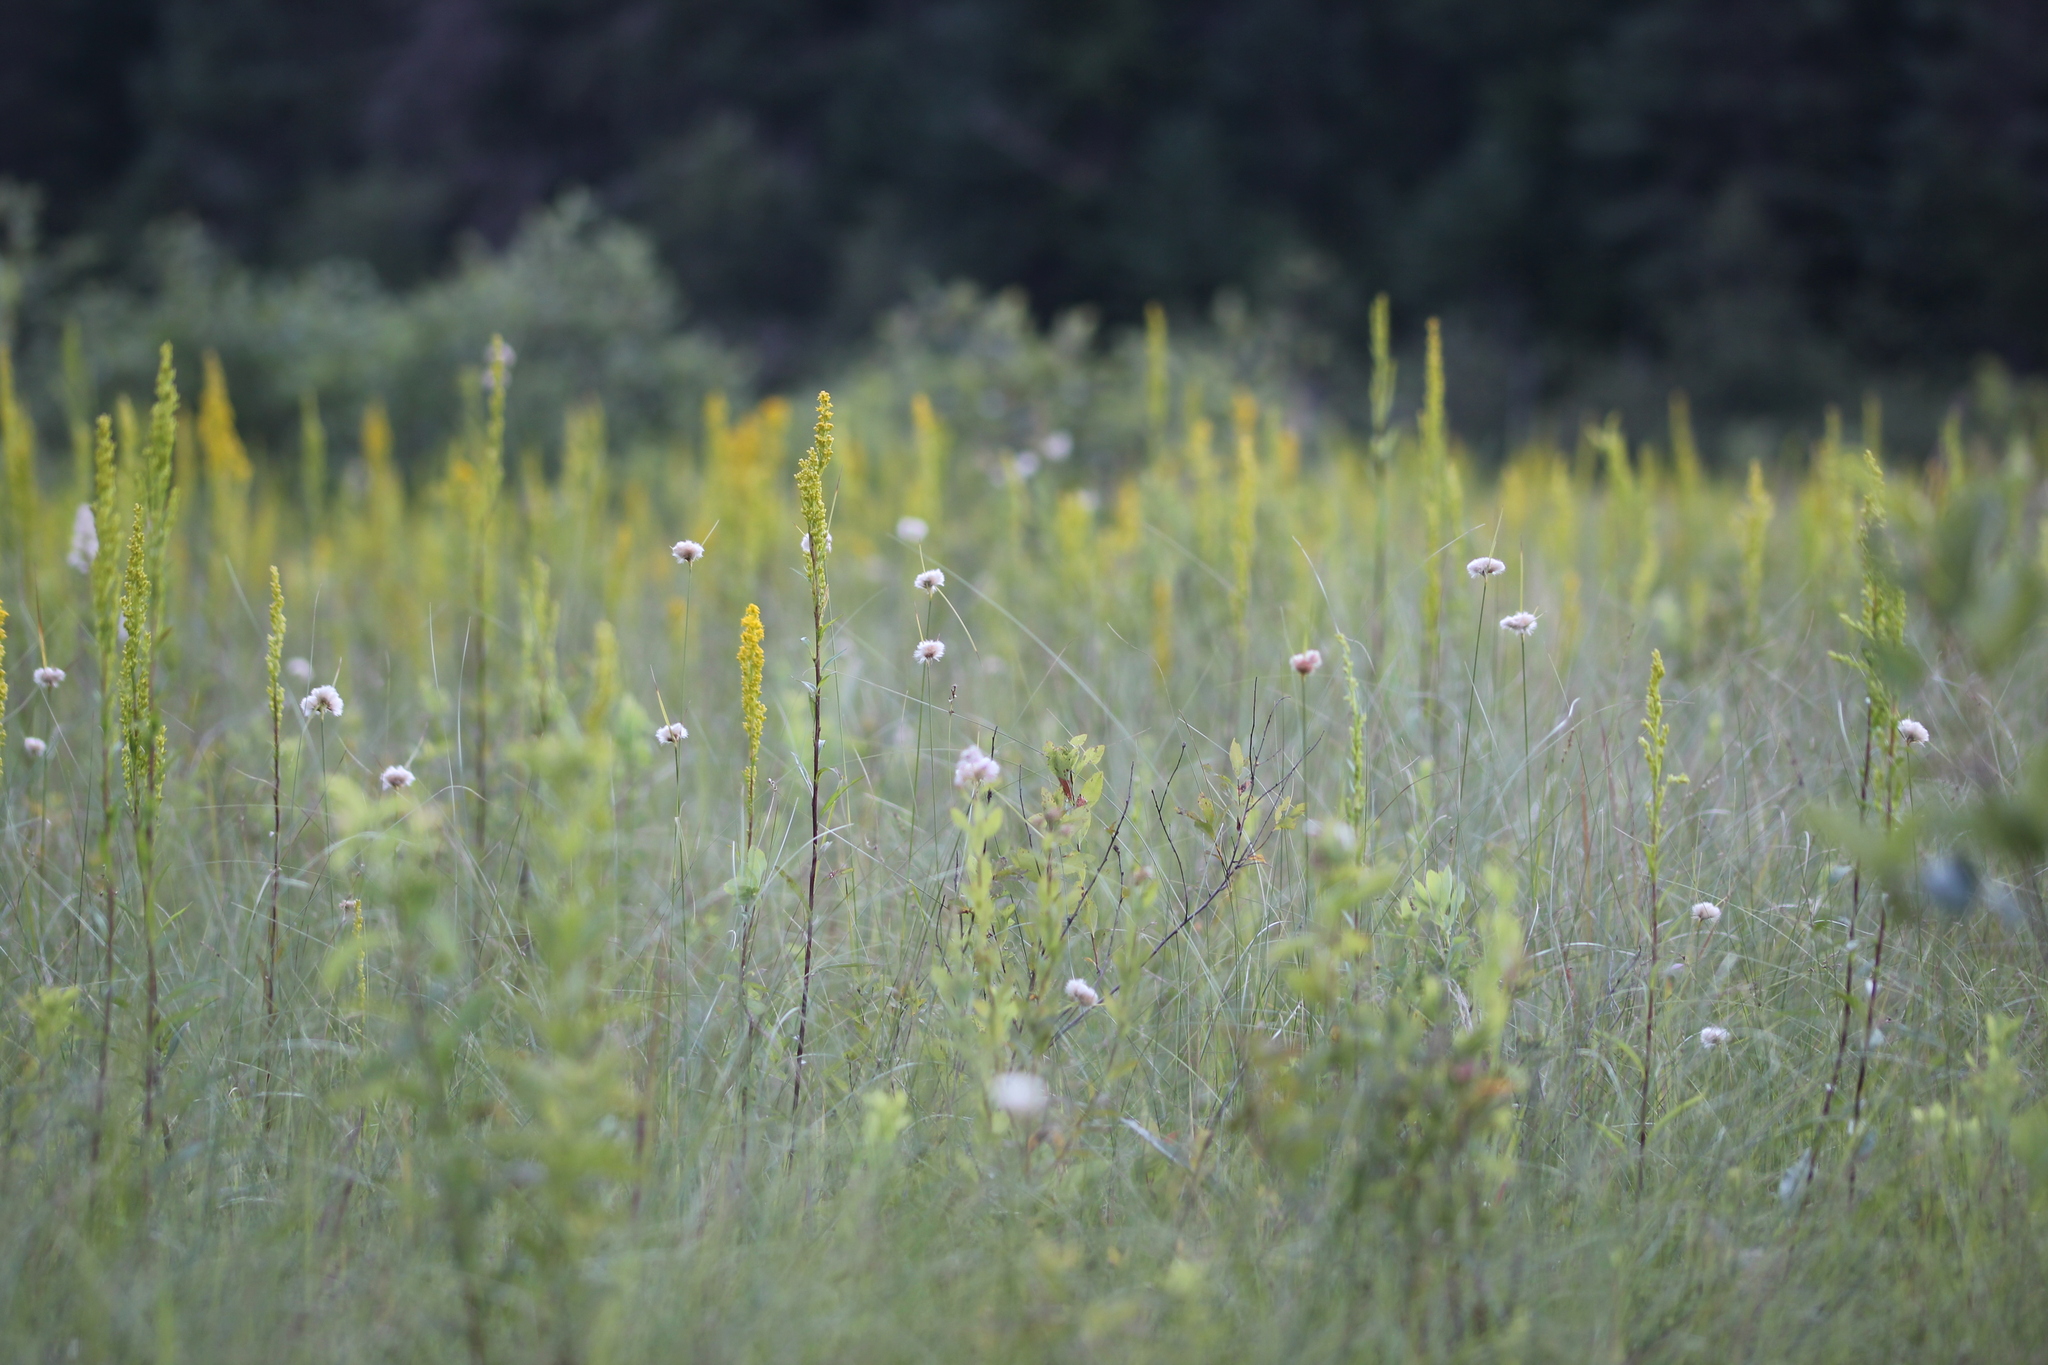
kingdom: Plantae
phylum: Tracheophyta
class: Liliopsida
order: Poales
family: Cyperaceae
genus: Eriophorum
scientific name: Eriophorum virginicum
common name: Tawny cottongrass
